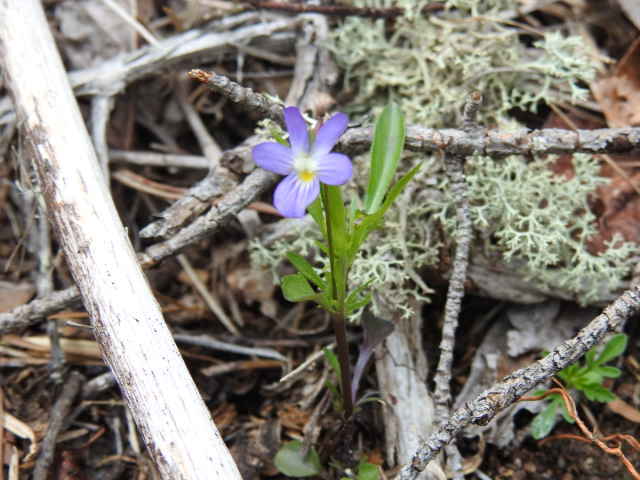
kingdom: Plantae
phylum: Tracheophyta
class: Magnoliopsida
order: Malpighiales
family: Violaceae
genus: Viola
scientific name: Viola rafinesquei
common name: American field pansy
